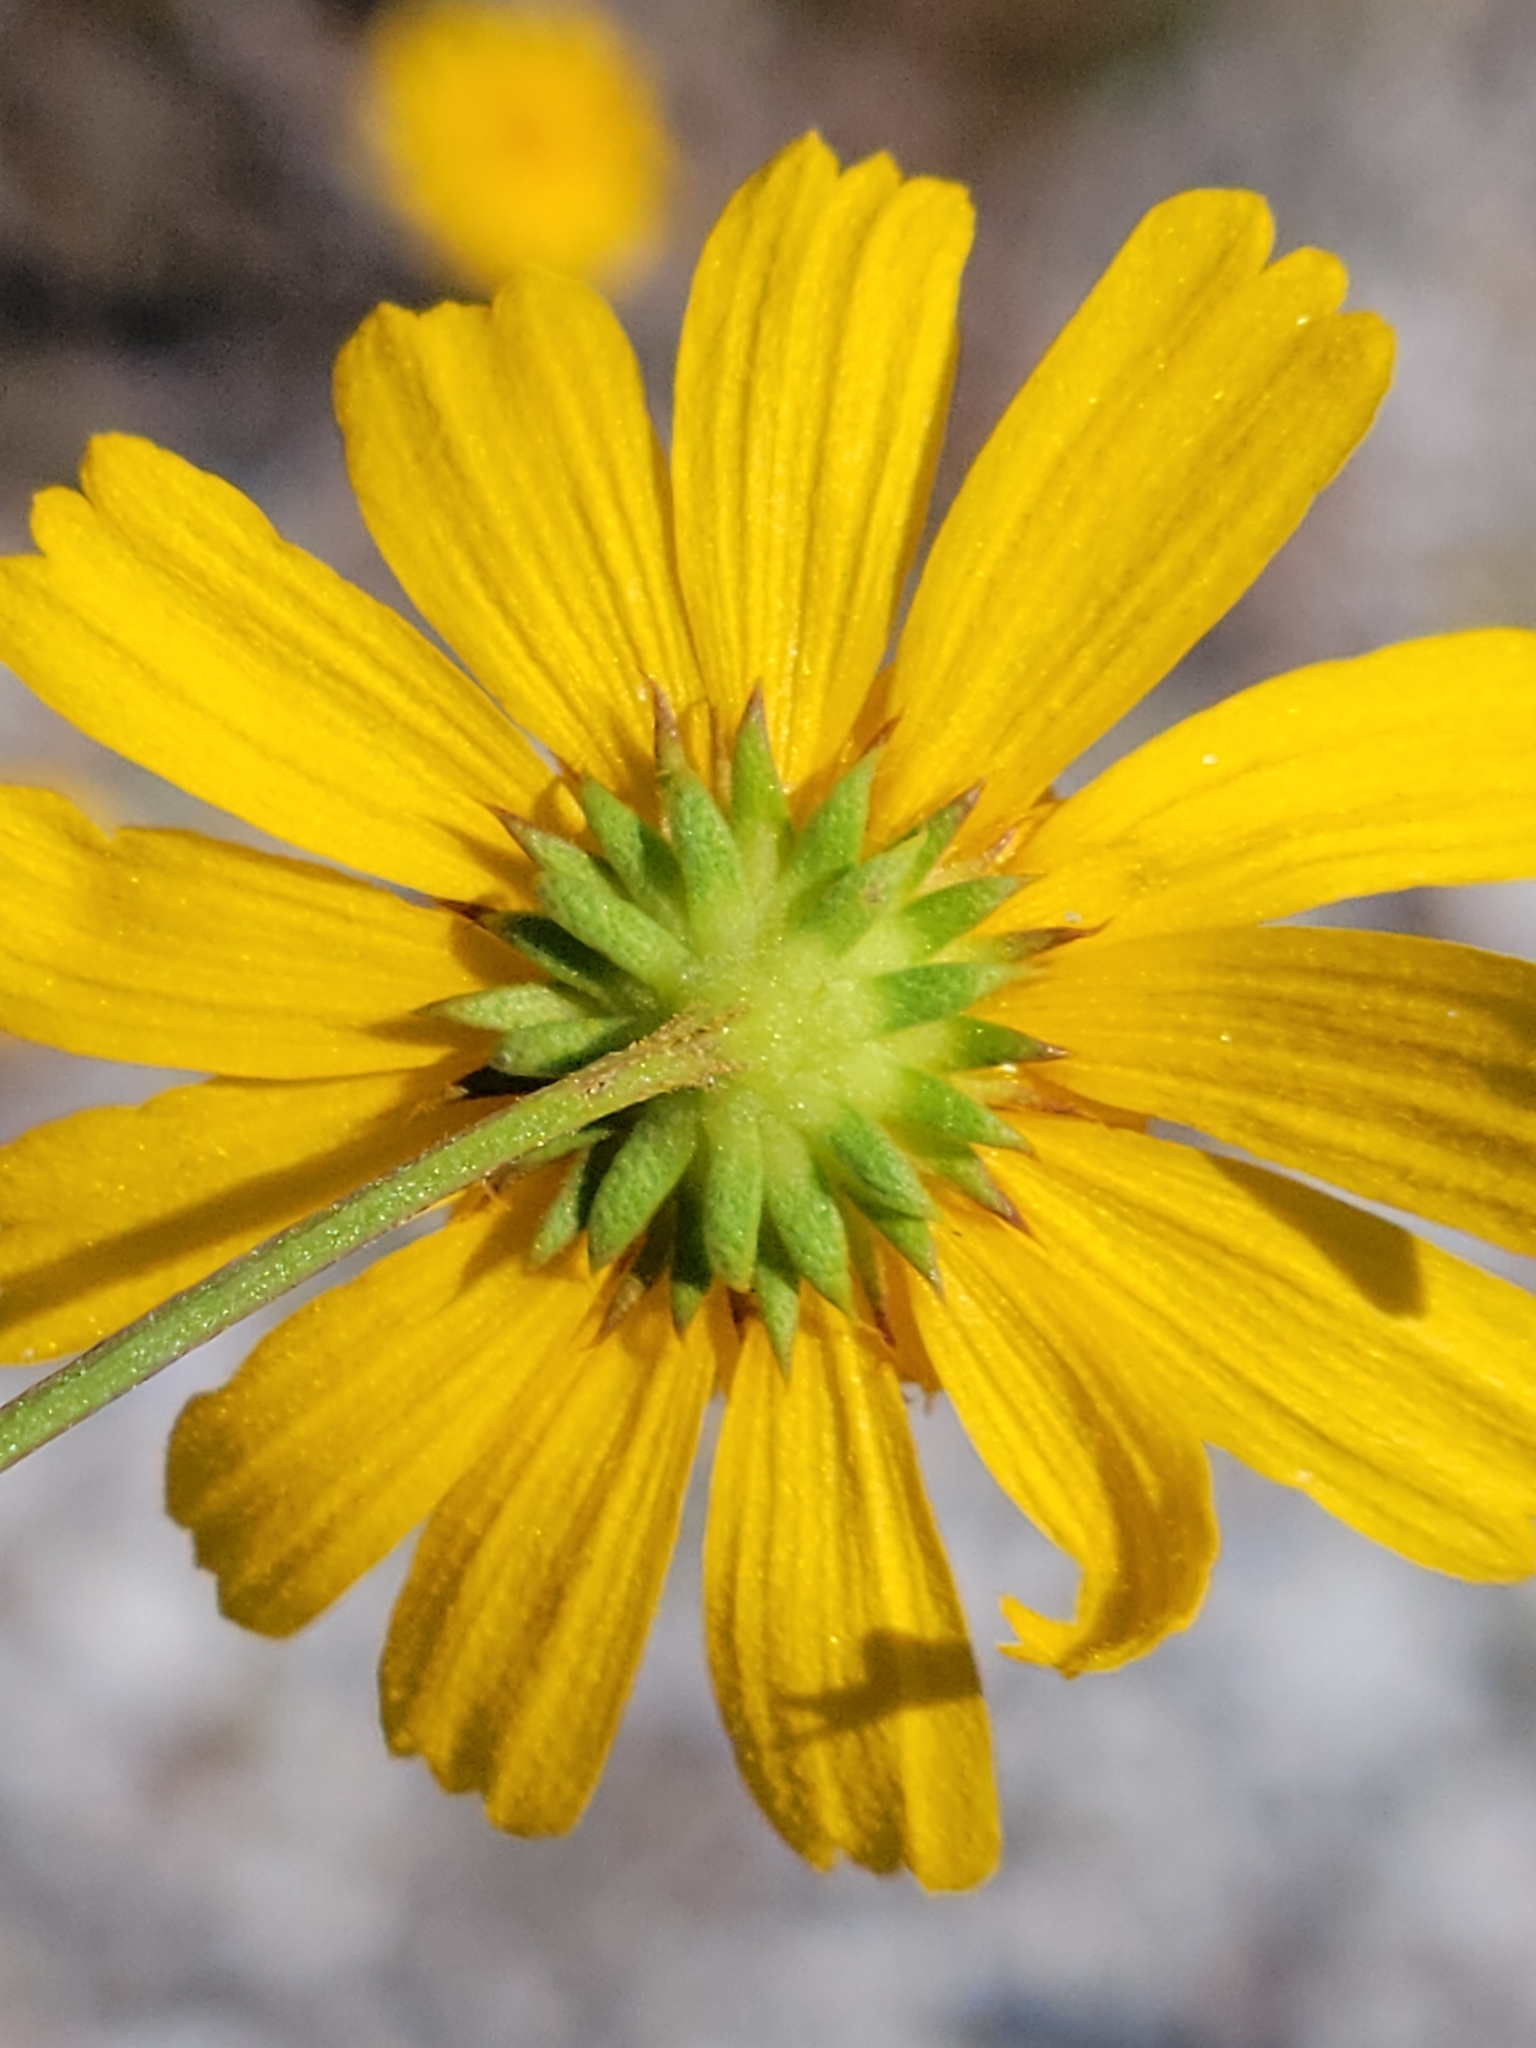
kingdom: Plantae
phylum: Tracheophyta
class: Magnoliopsida
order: Asterales
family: Asteraceae
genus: Balduina
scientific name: Balduina angustifolia
